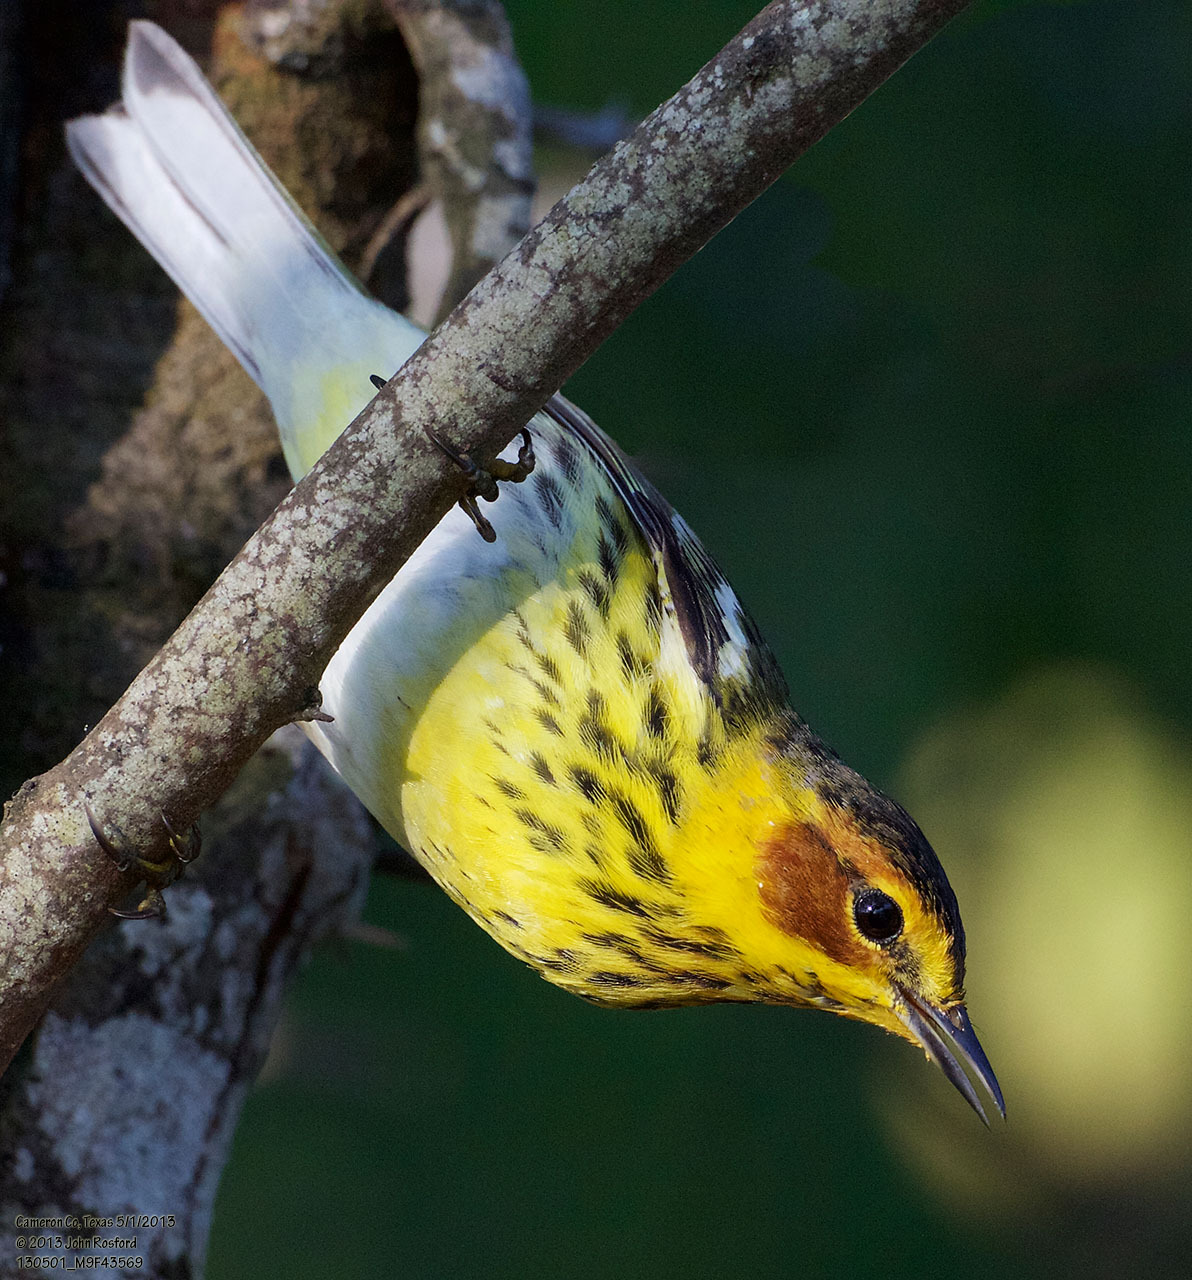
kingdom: Animalia
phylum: Chordata
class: Aves
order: Passeriformes
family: Parulidae
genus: Setophaga
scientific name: Setophaga tigrina
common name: Cape may warbler
